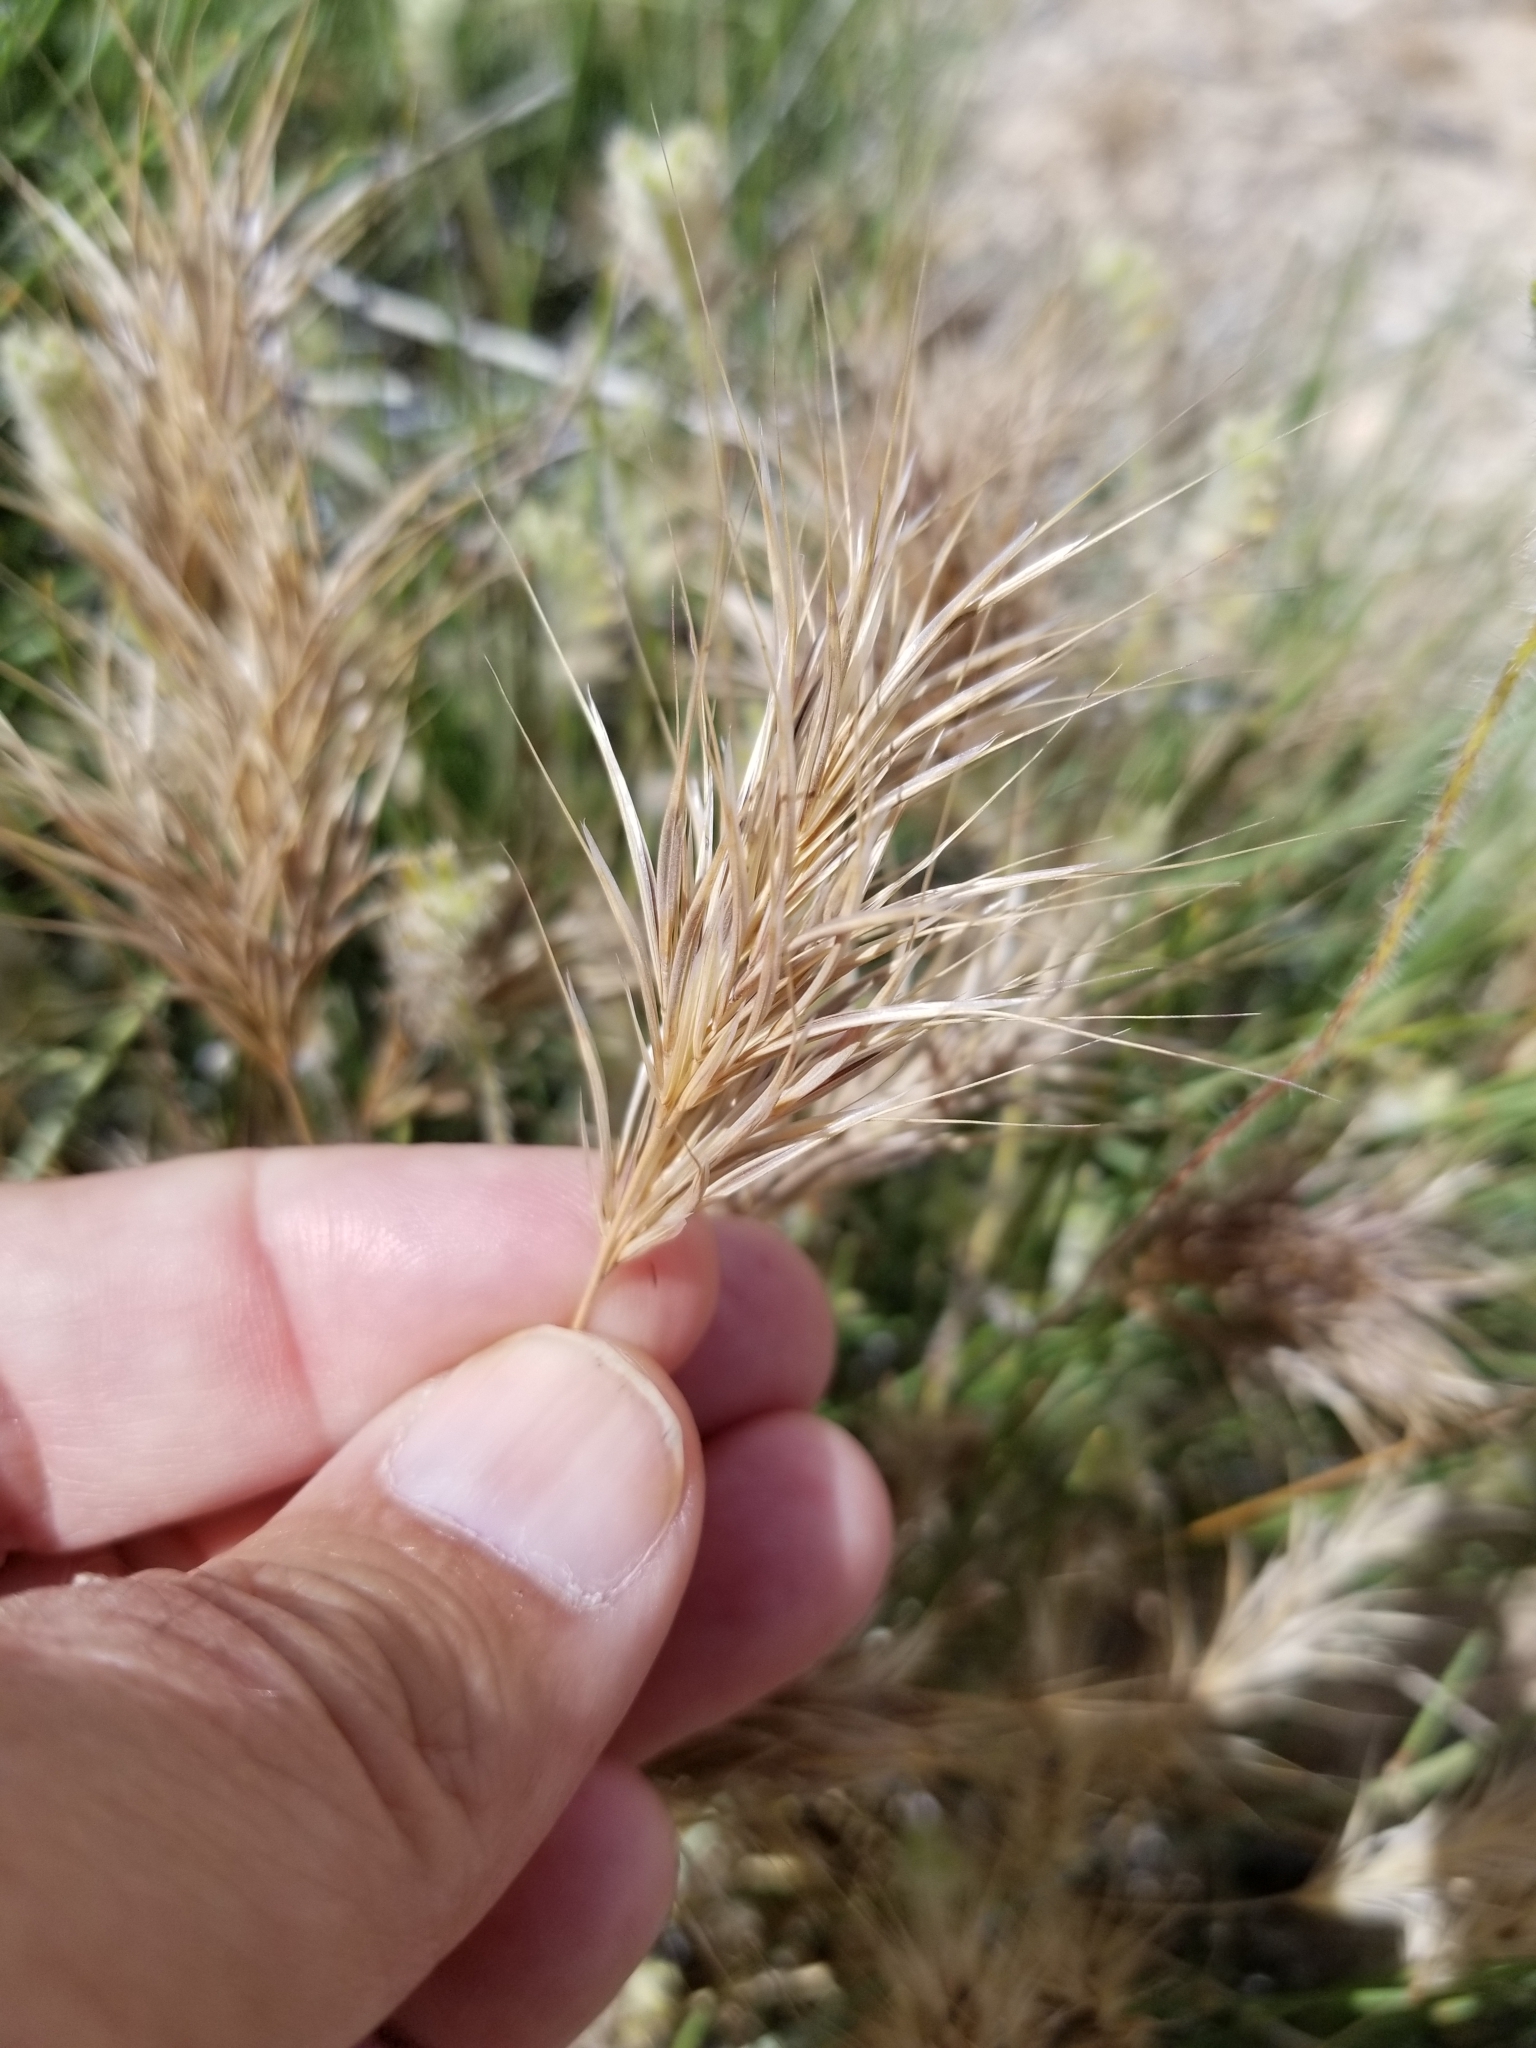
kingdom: Plantae
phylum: Tracheophyta
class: Liliopsida
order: Poales
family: Poaceae
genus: Bromus
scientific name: Bromus rubens
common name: Red brome
